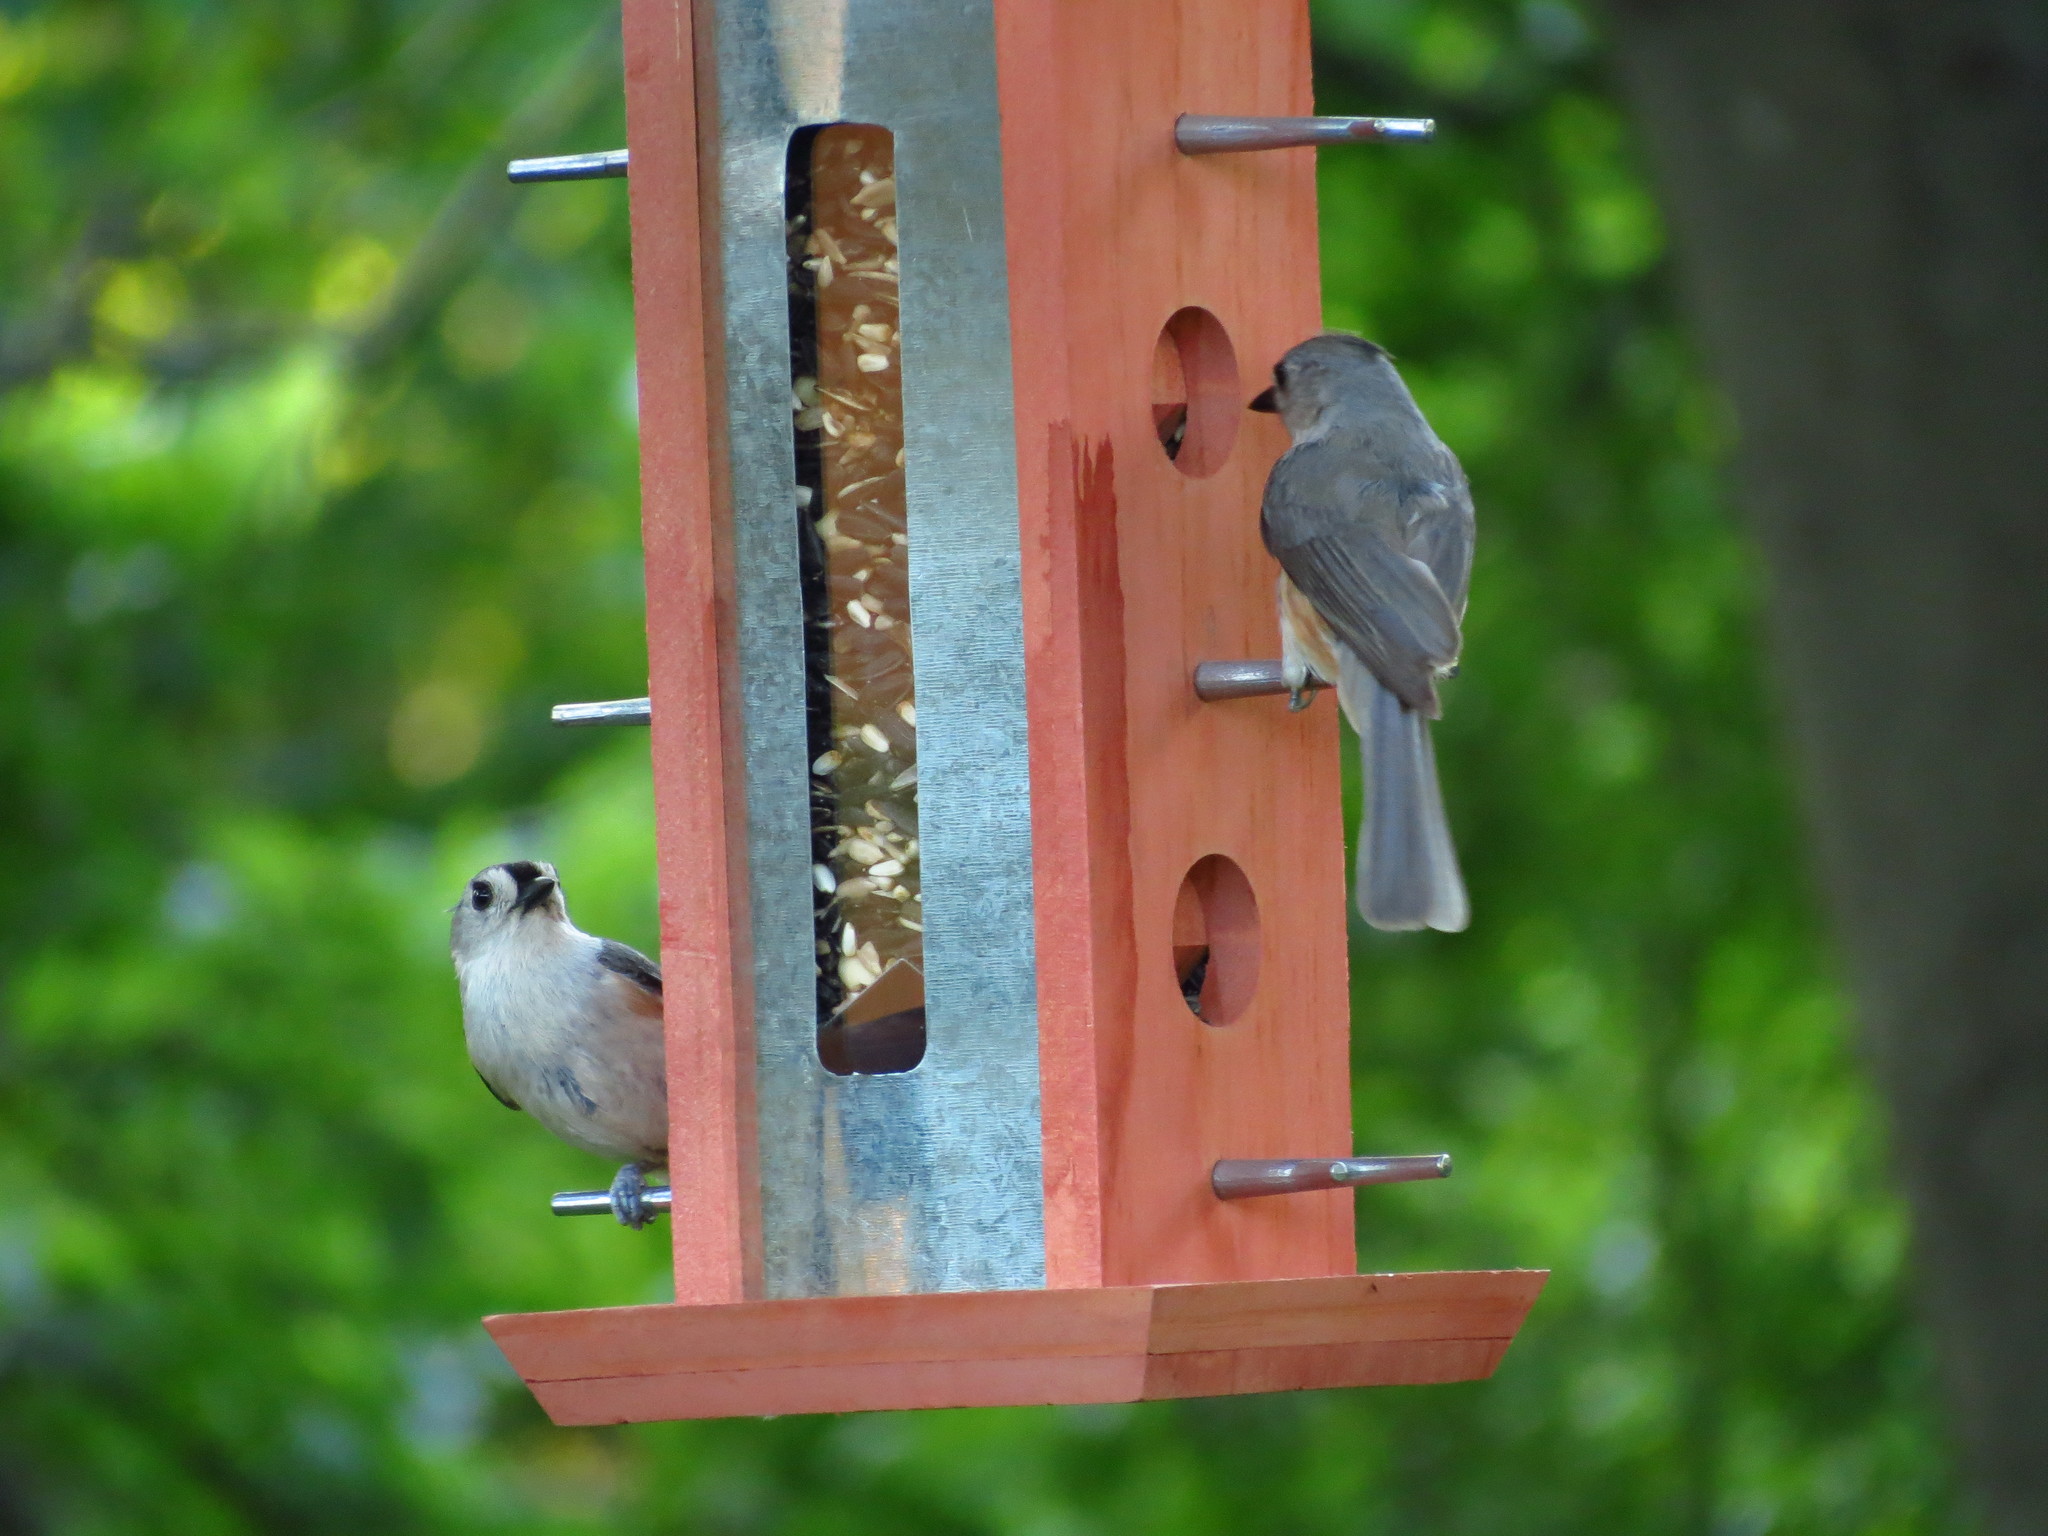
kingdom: Animalia
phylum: Chordata
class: Aves
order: Passeriformes
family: Paridae
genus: Baeolophus
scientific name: Baeolophus bicolor
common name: Tufted titmouse
